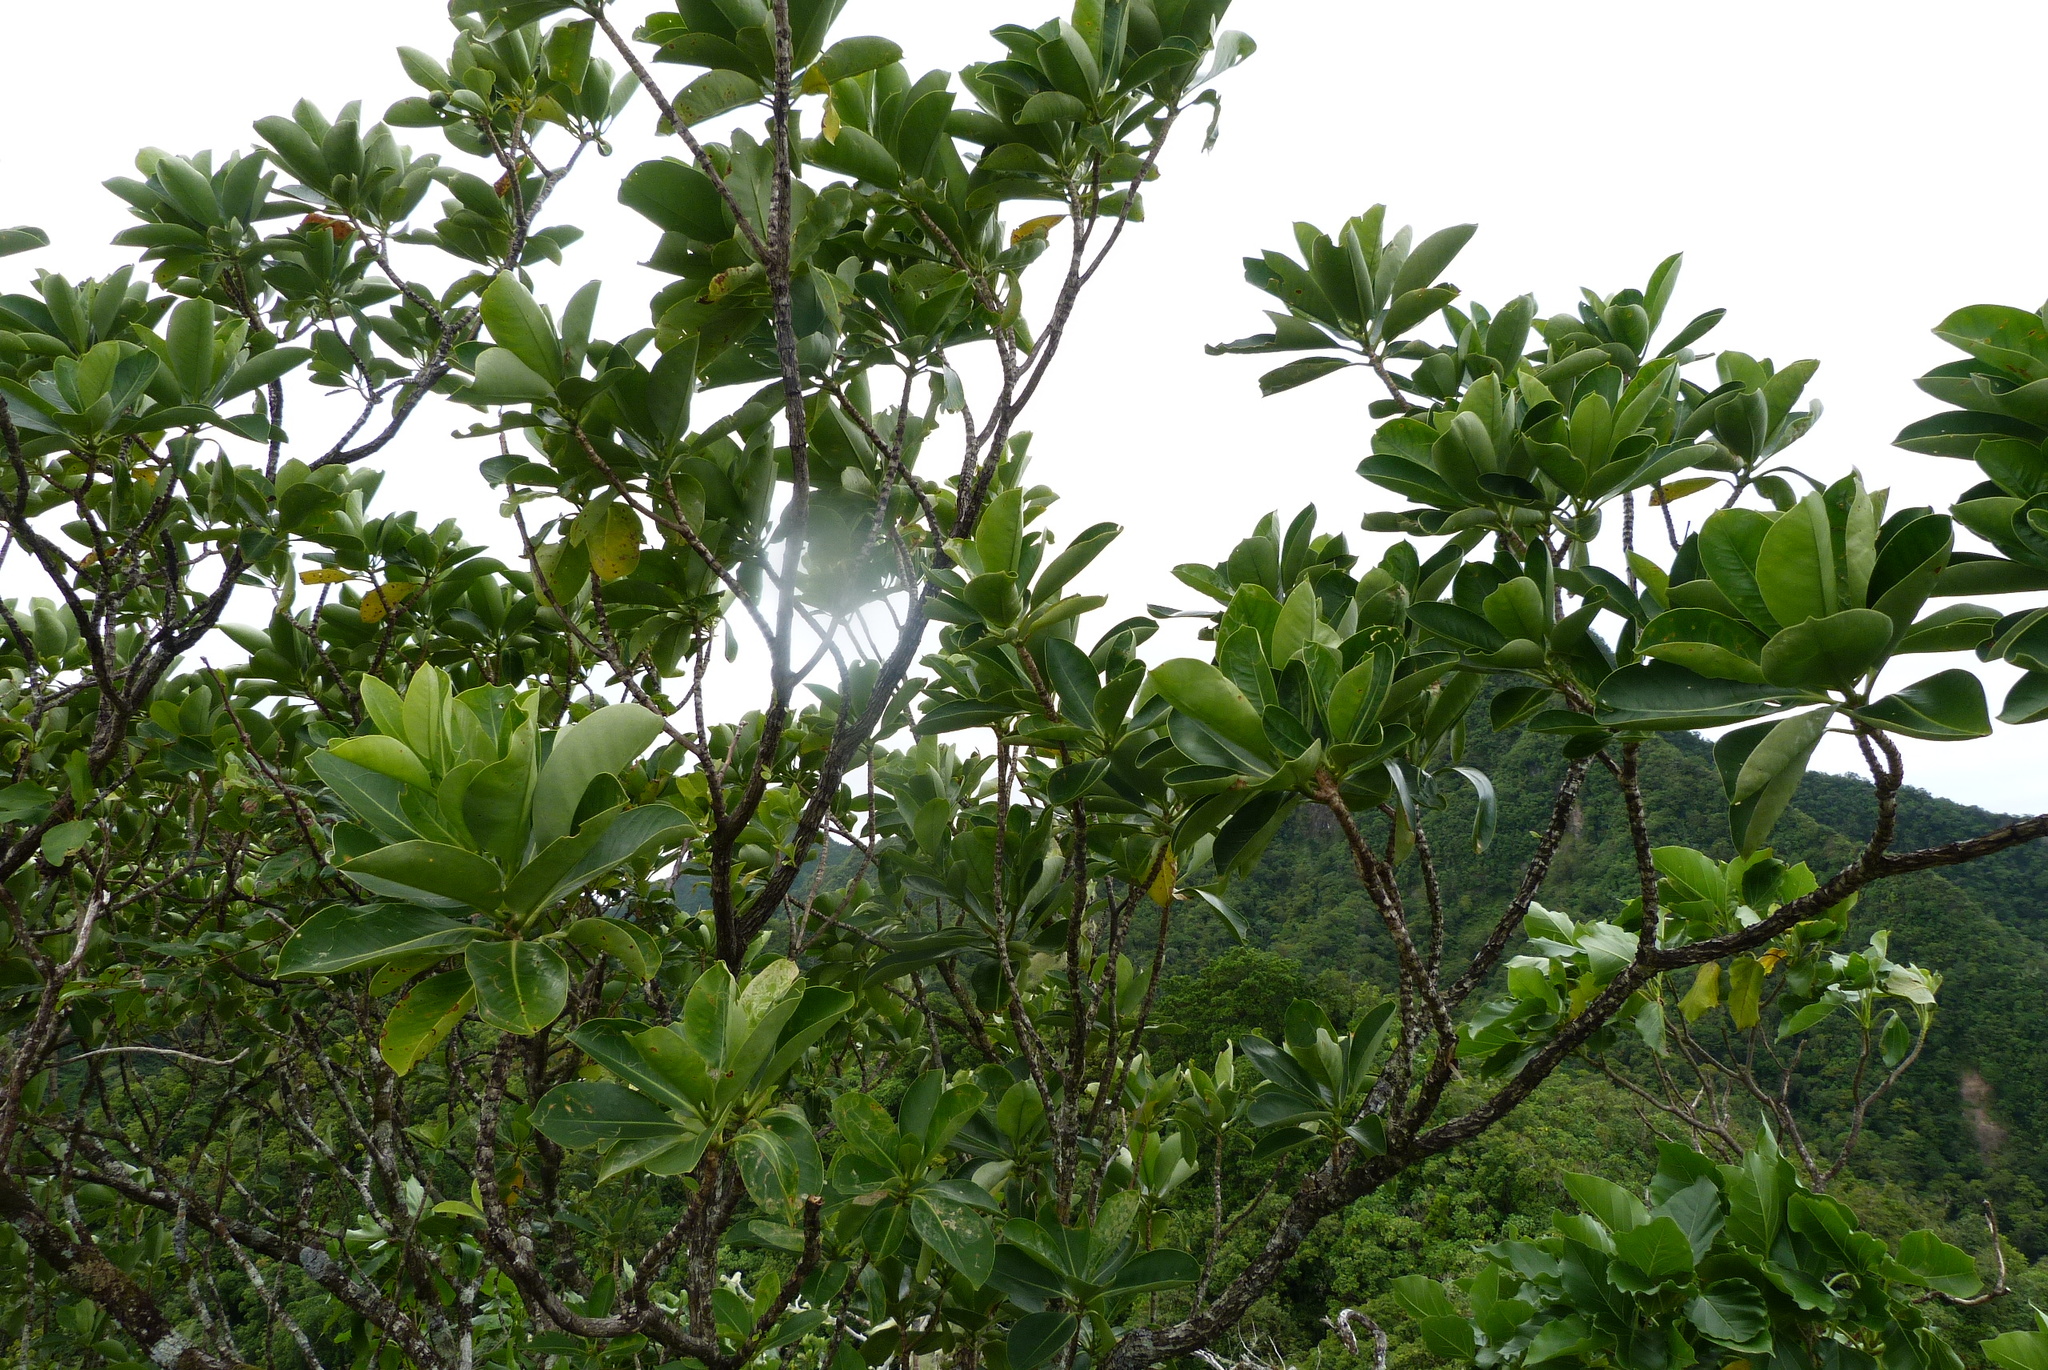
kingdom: Plantae
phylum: Tracheophyta
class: Magnoliopsida
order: Gentianales
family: Gentianaceae
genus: Fagraea
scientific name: Fagraea berteroana
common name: Cape jitta
